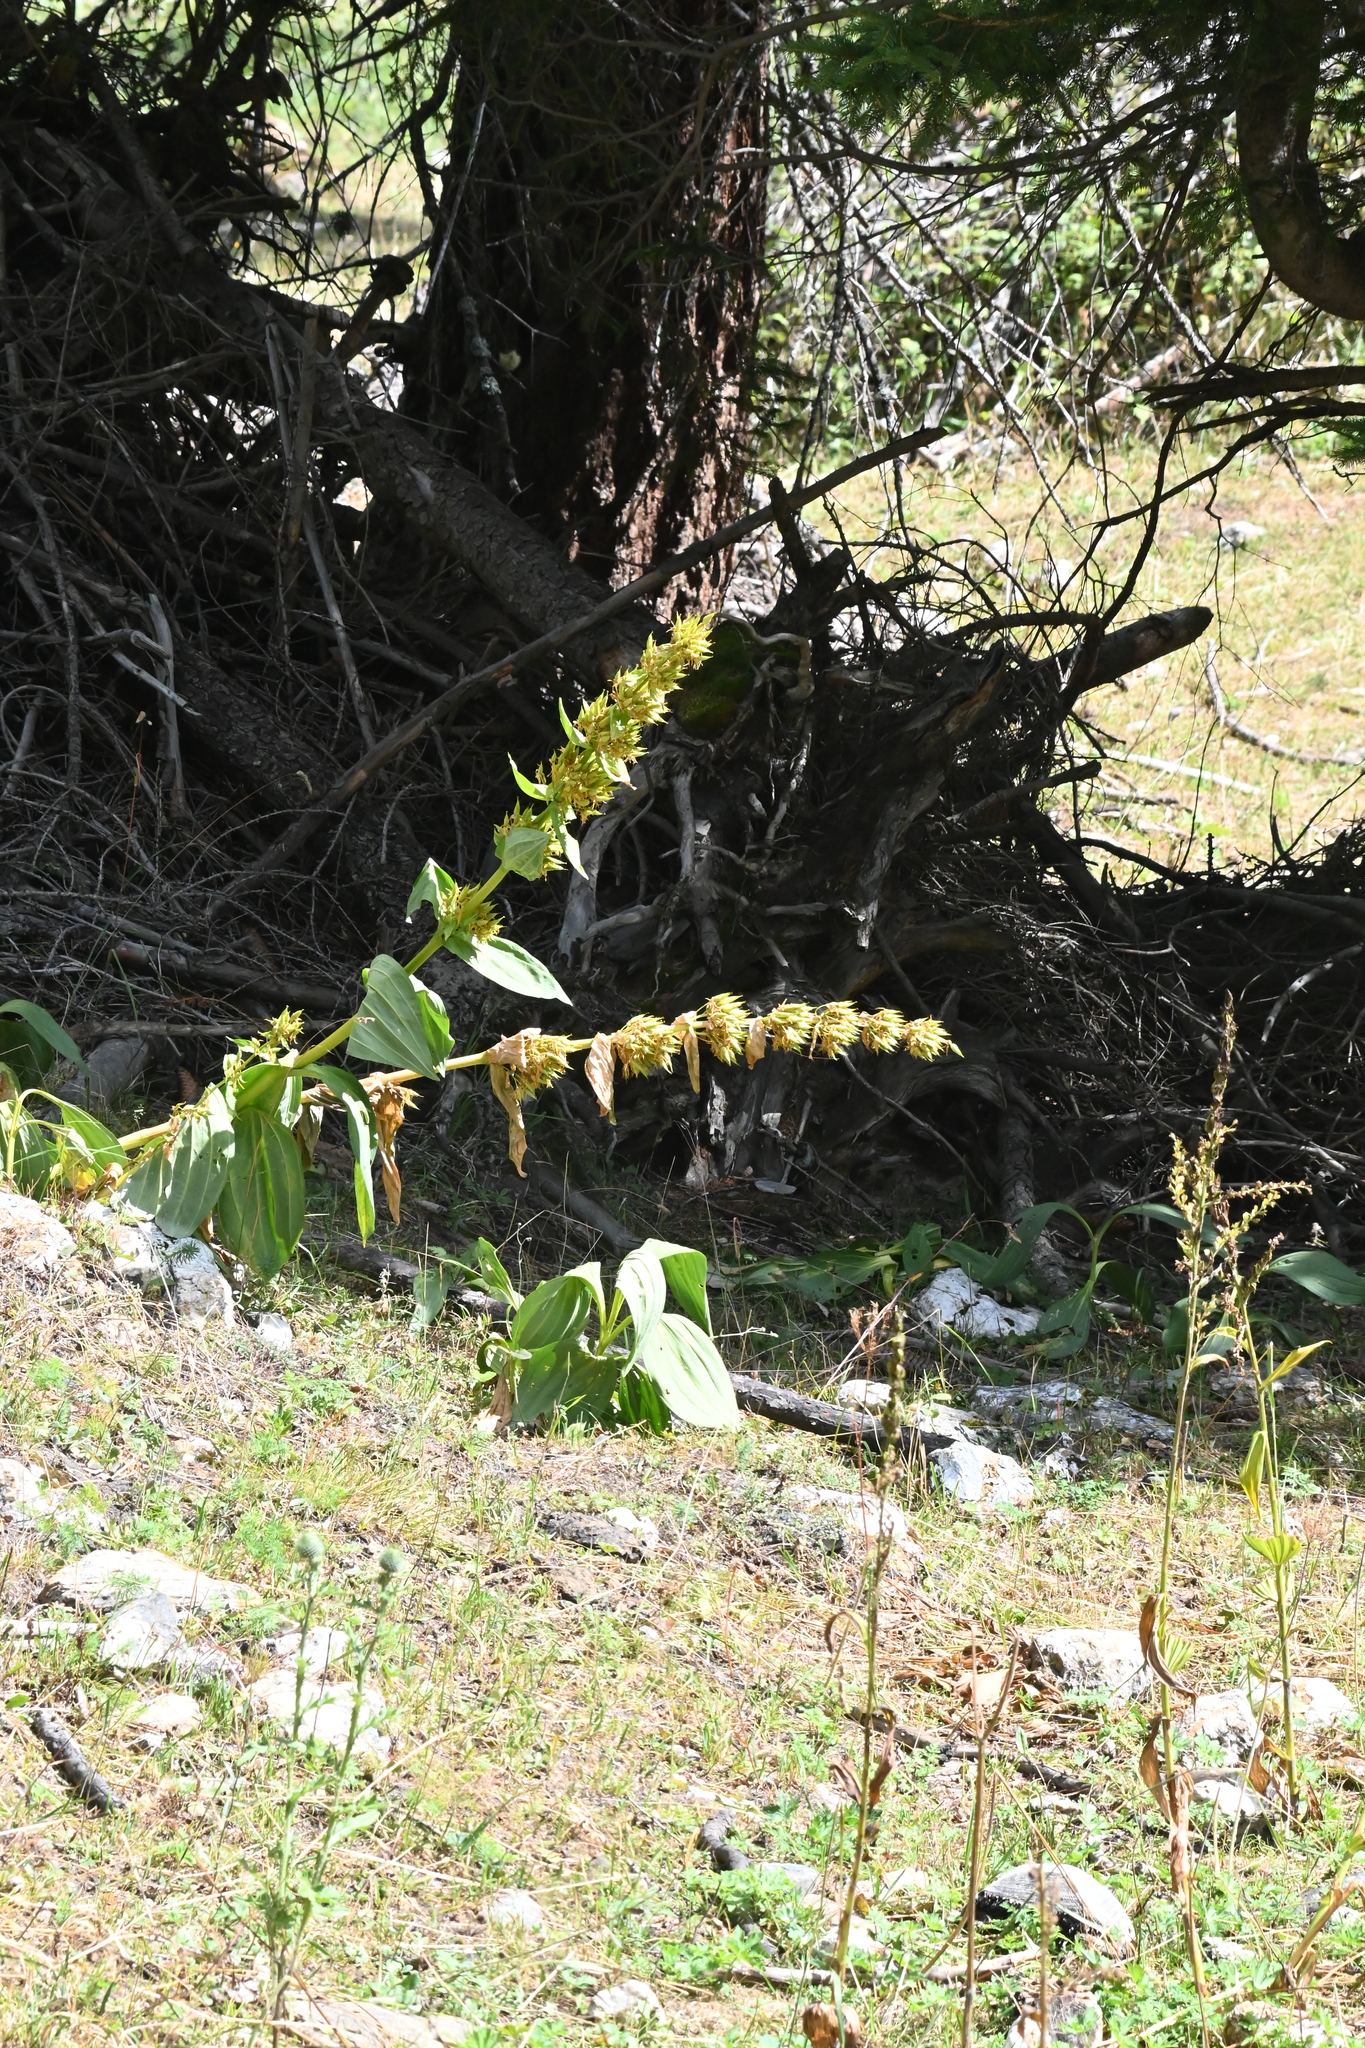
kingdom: Plantae
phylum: Tracheophyta
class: Magnoliopsida
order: Gentianales
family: Gentianaceae
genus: Gentiana
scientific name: Gentiana lutea
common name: Great yellow gentian
